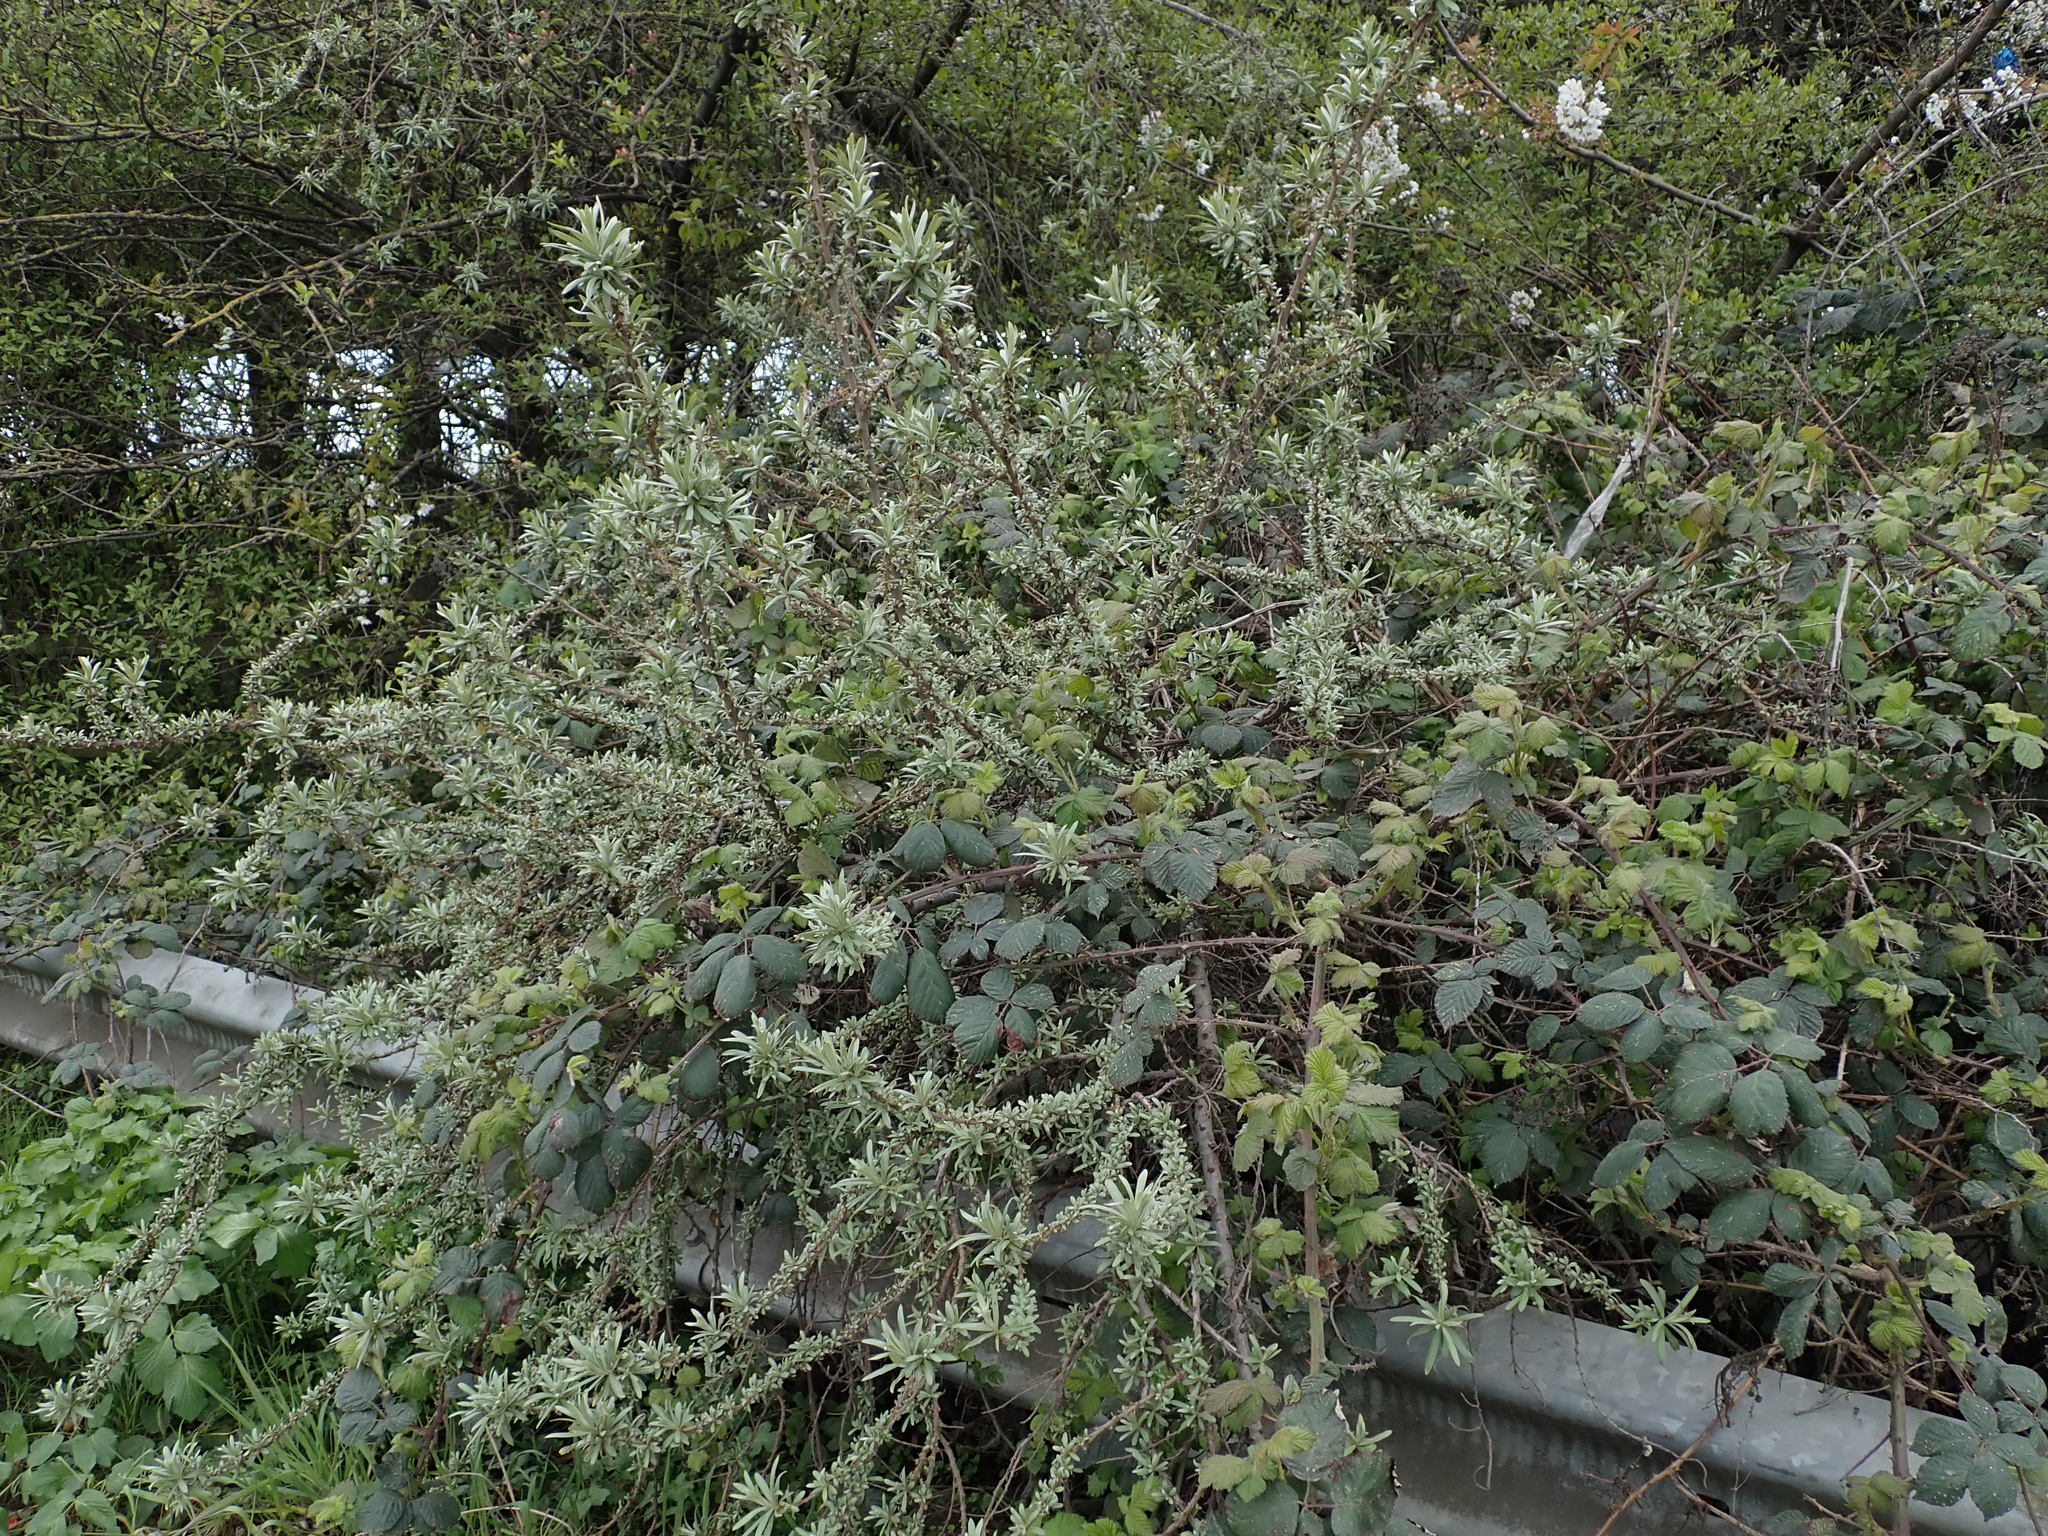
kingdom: Plantae
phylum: Tracheophyta
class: Magnoliopsida
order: Rosales
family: Elaeagnaceae
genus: Hippophae
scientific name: Hippophae rhamnoides
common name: Sea-buckthorn
